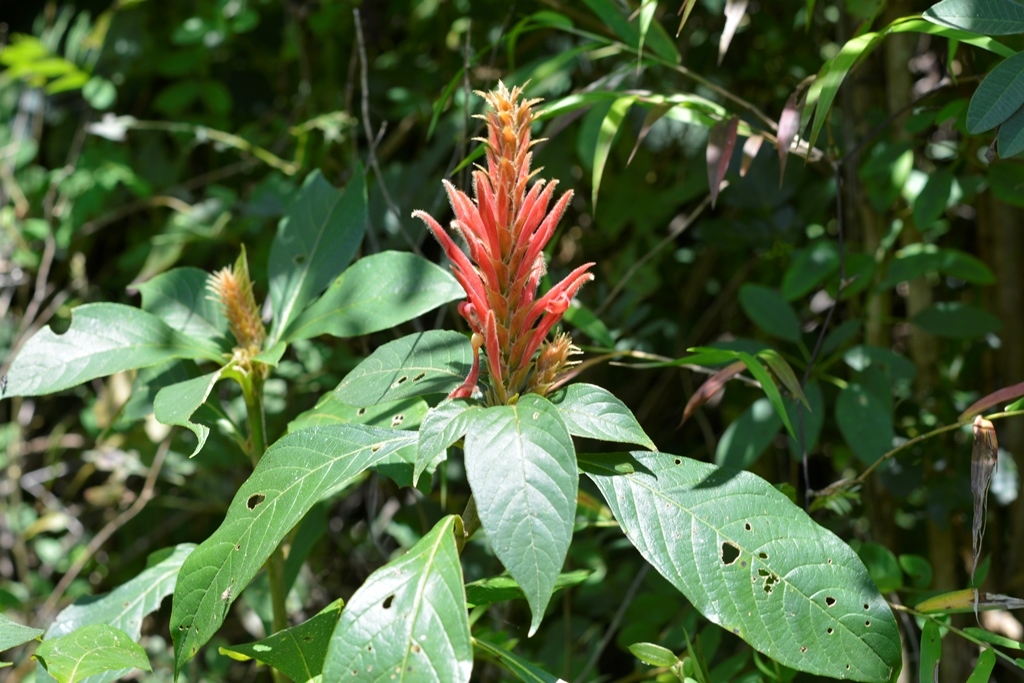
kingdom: Plantae
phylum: Tracheophyta
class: Magnoliopsida
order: Lamiales
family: Acanthaceae
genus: Aphelandra
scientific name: Aphelandra scabra
